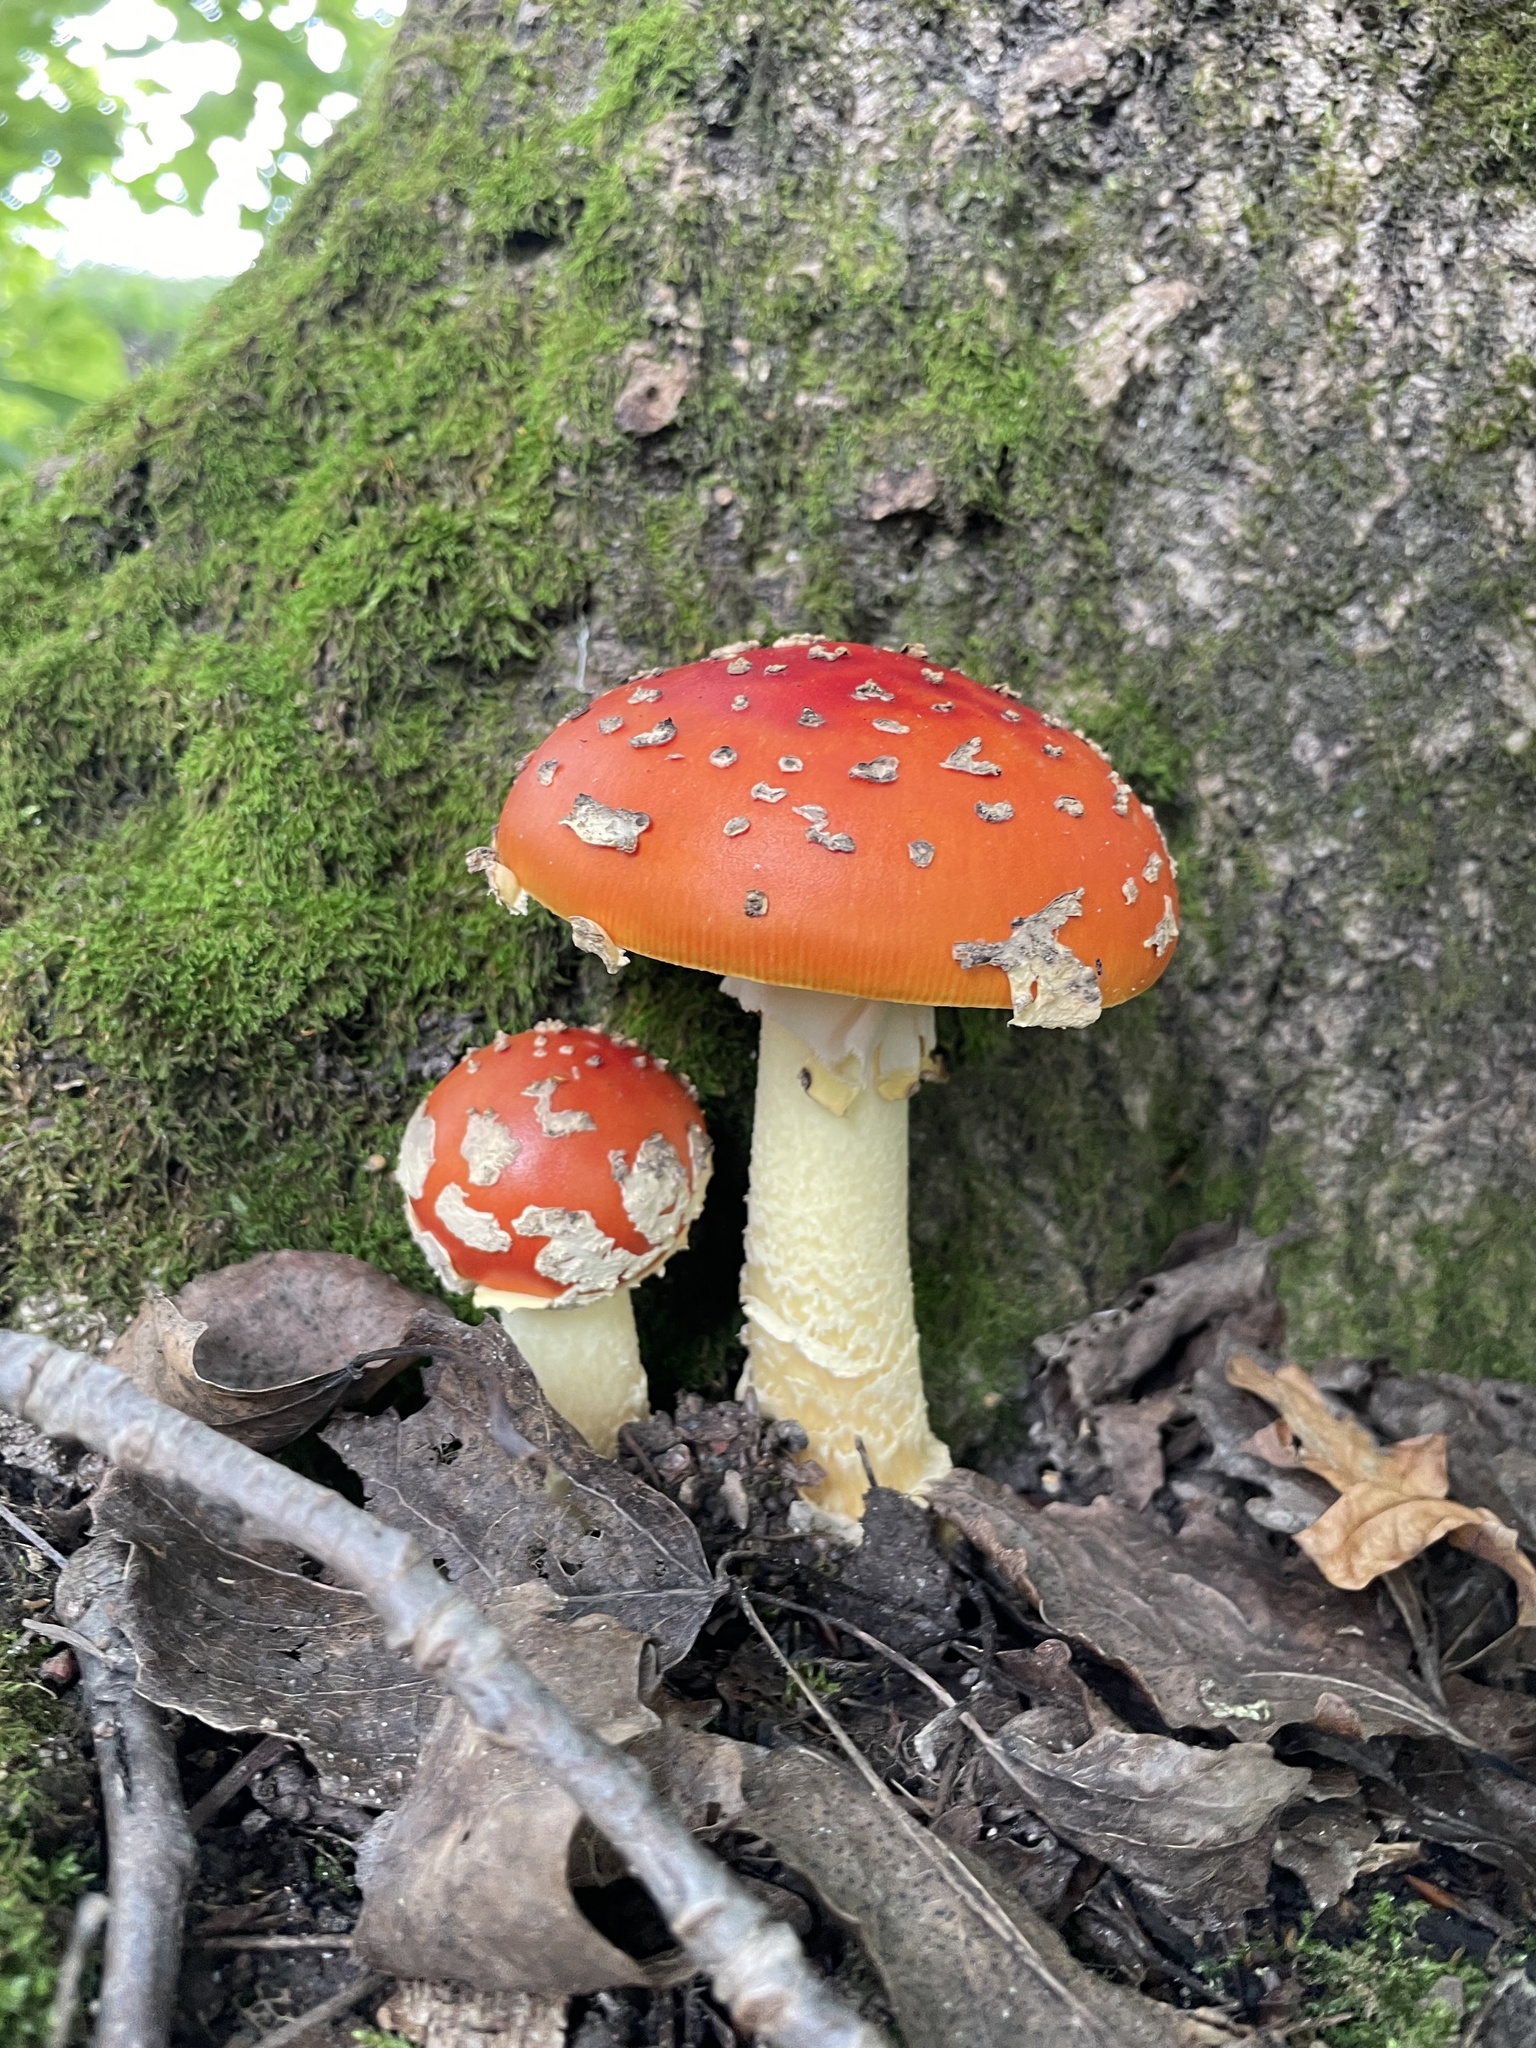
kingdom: Fungi
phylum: Basidiomycota
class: Agaricomycetes
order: Agaricales
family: Amanitaceae
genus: Amanita
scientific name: Amanita muscaria
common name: Fly agaric
